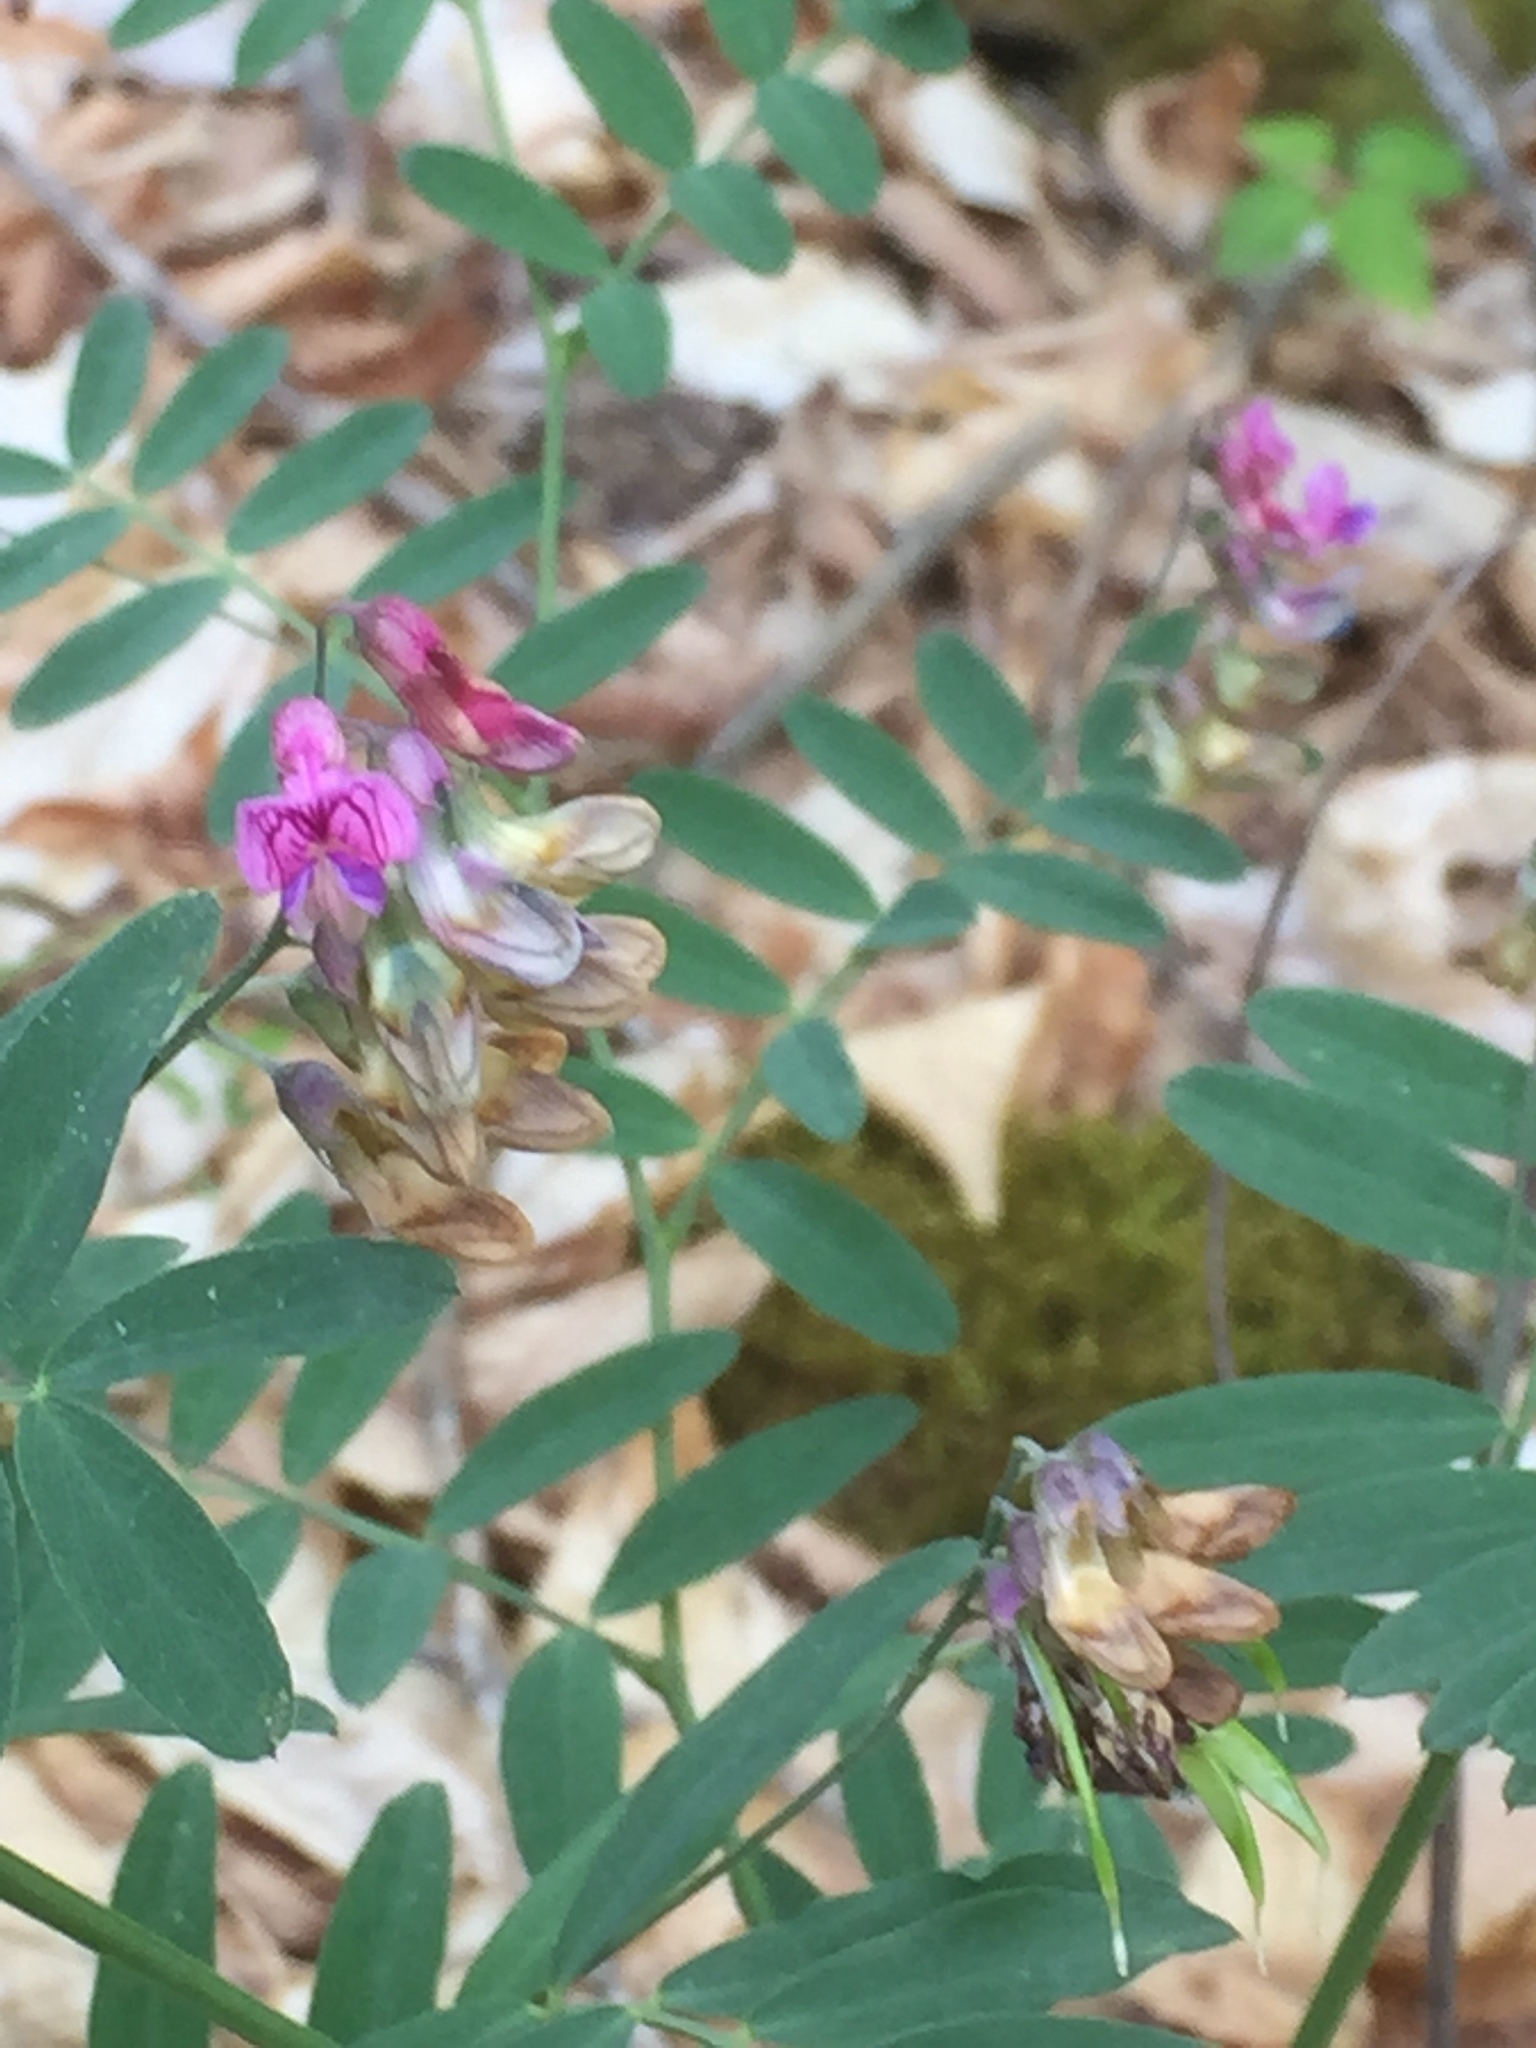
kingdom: Plantae
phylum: Tracheophyta
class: Magnoliopsida
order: Fabales
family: Fabaceae
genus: Lathyrus
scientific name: Lathyrus niger
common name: Black pea
